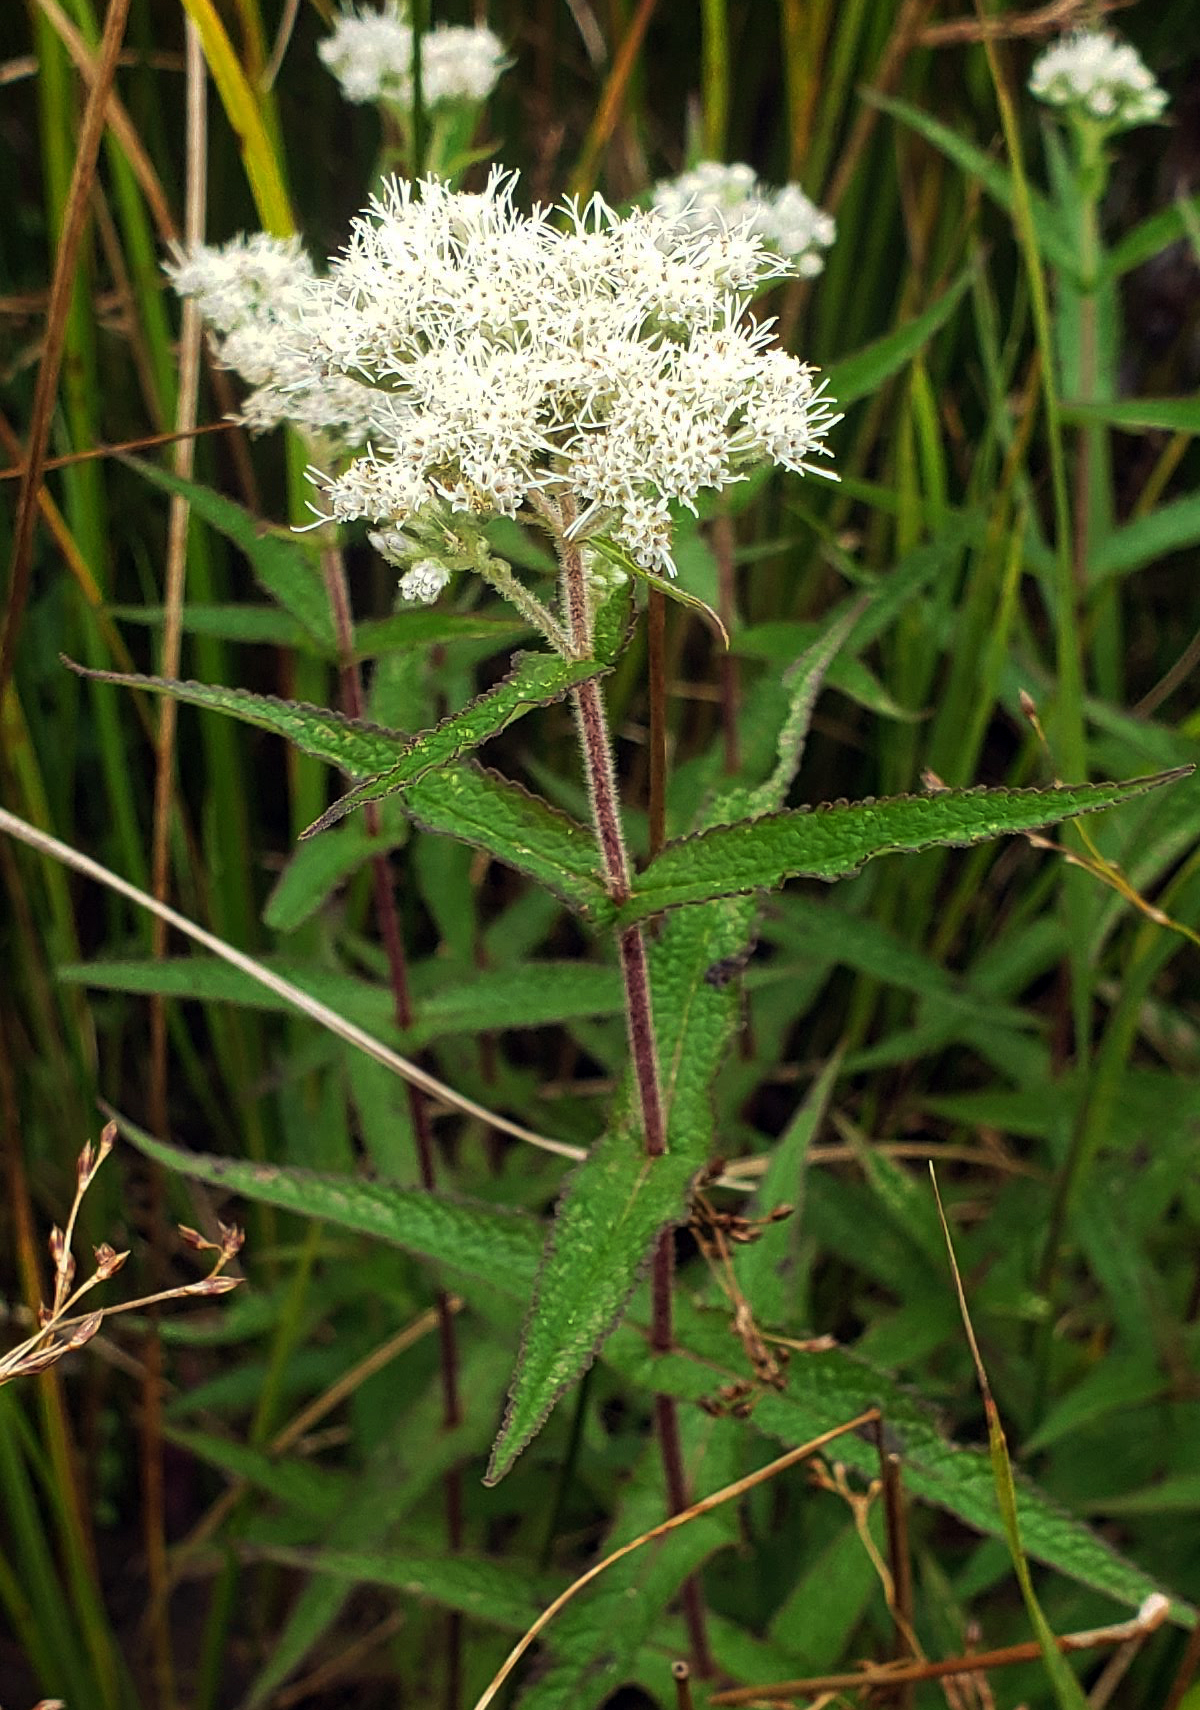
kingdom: Plantae
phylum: Tracheophyta
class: Magnoliopsida
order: Asterales
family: Asteraceae
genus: Eupatorium
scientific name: Eupatorium perfoliatum
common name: Boneset
